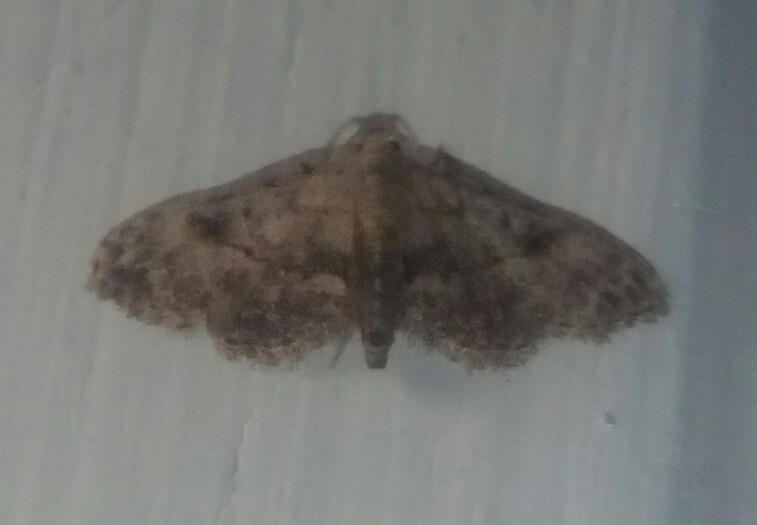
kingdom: Animalia
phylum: Arthropoda
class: Insecta
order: Lepidoptera
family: Erebidae
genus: Sigela
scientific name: Sigela brauneata
